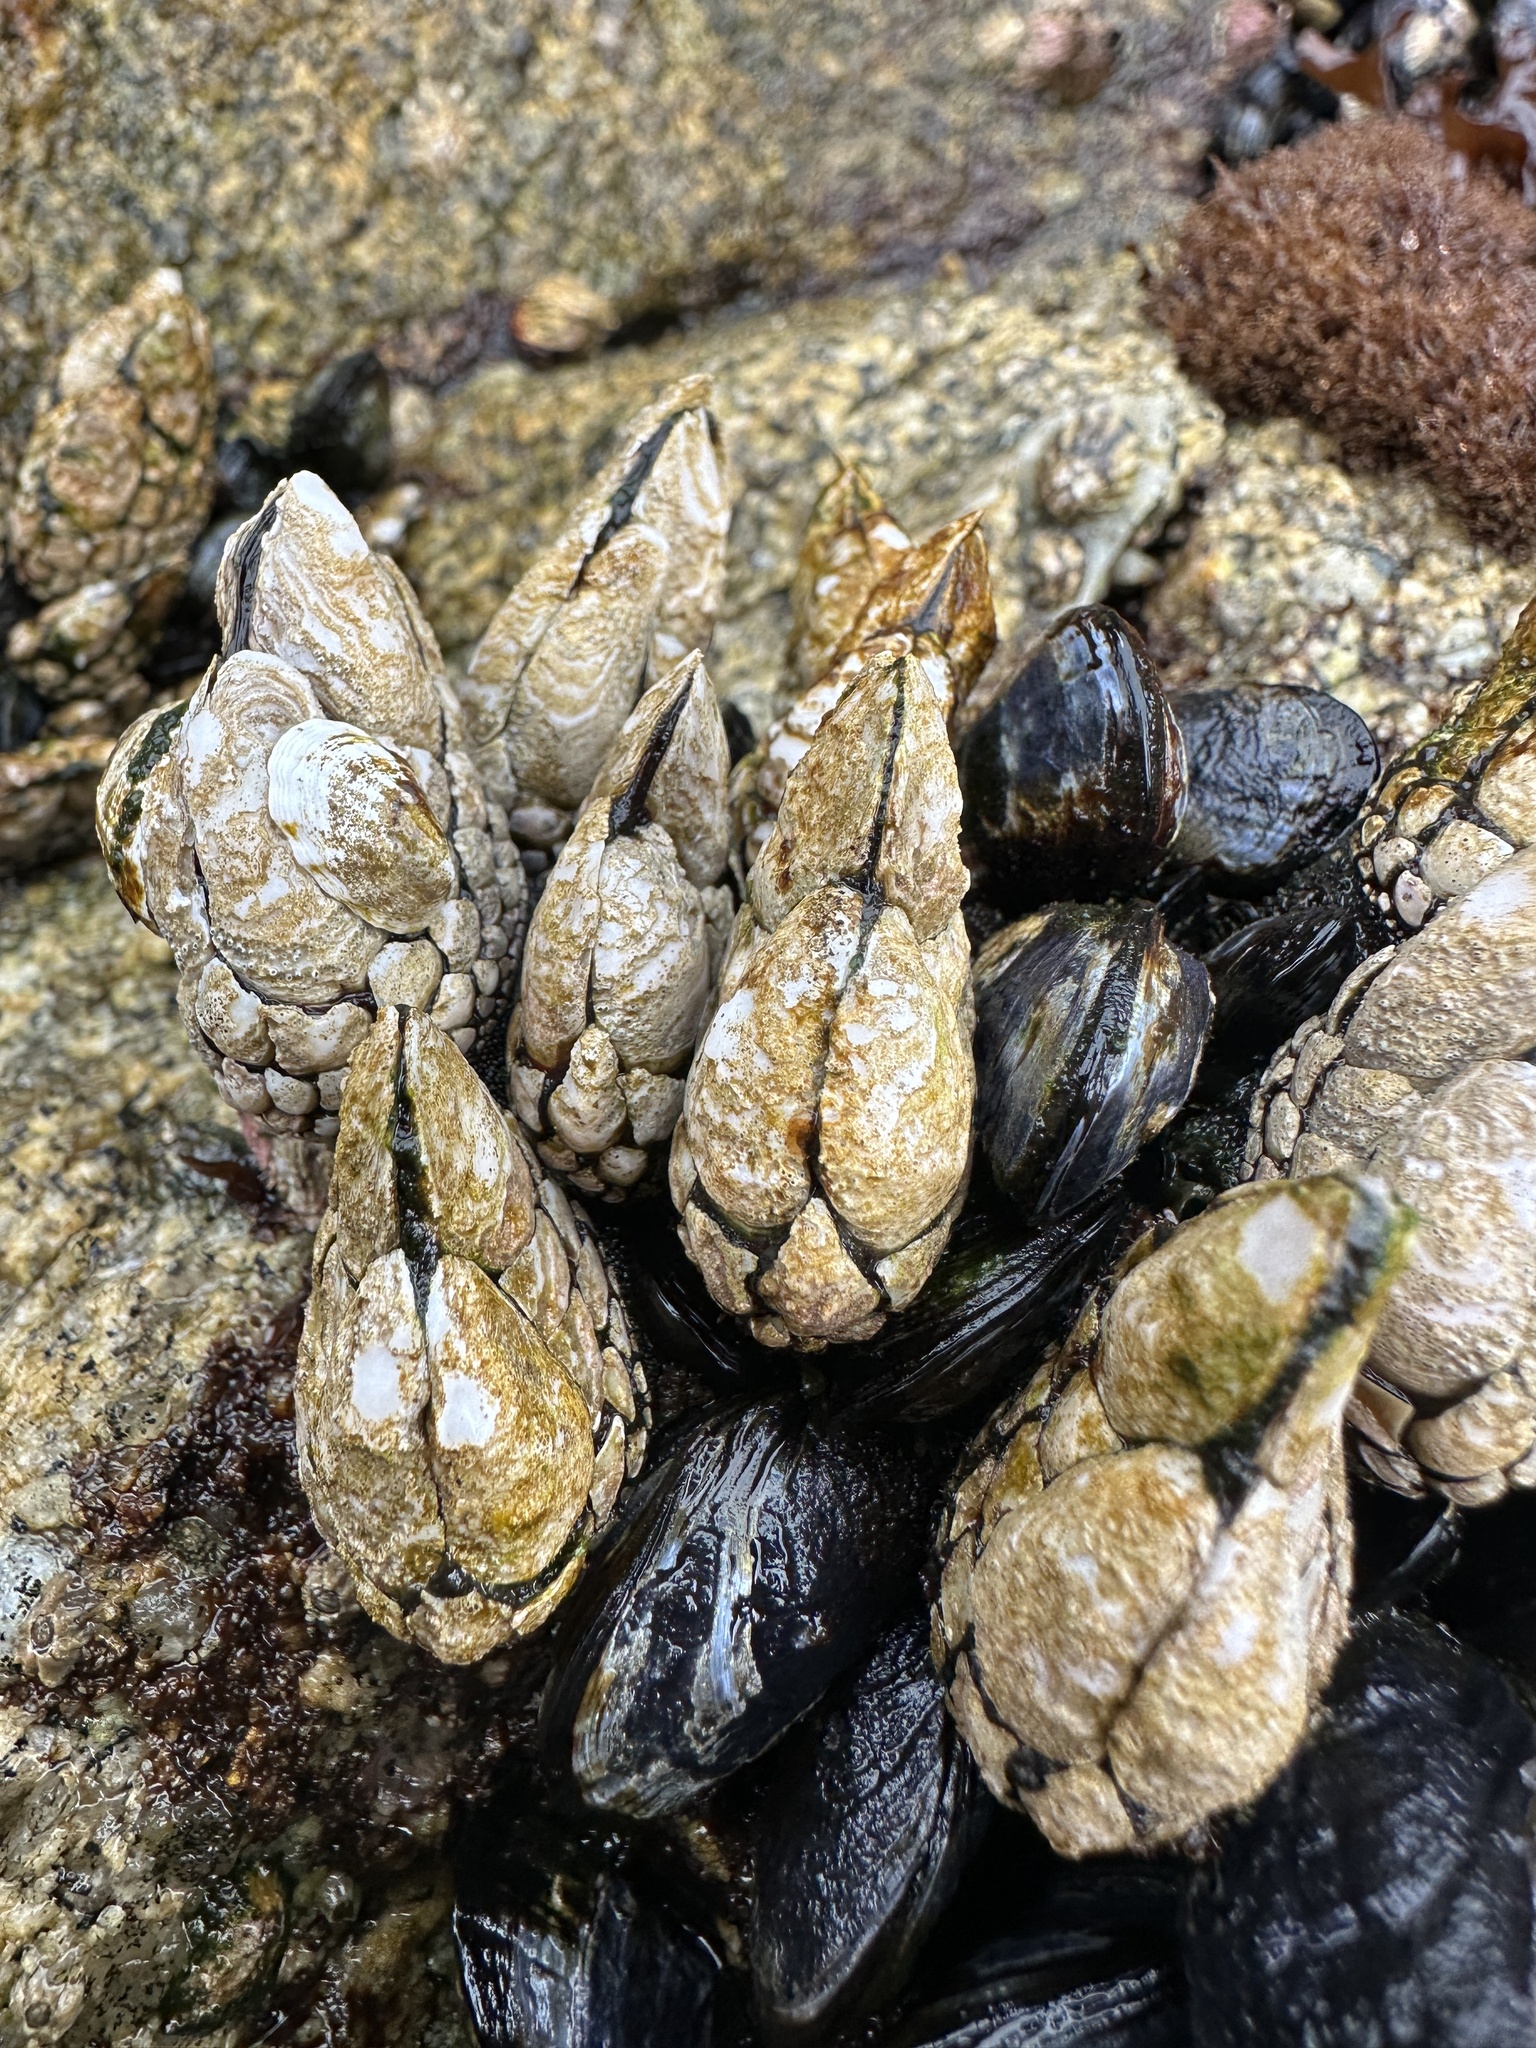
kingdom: Animalia
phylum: Arthropoda
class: Maxillopoda
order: Pedunculata
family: Pollicipedidae
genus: Pollicipes
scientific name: Pollicipes polymerus
